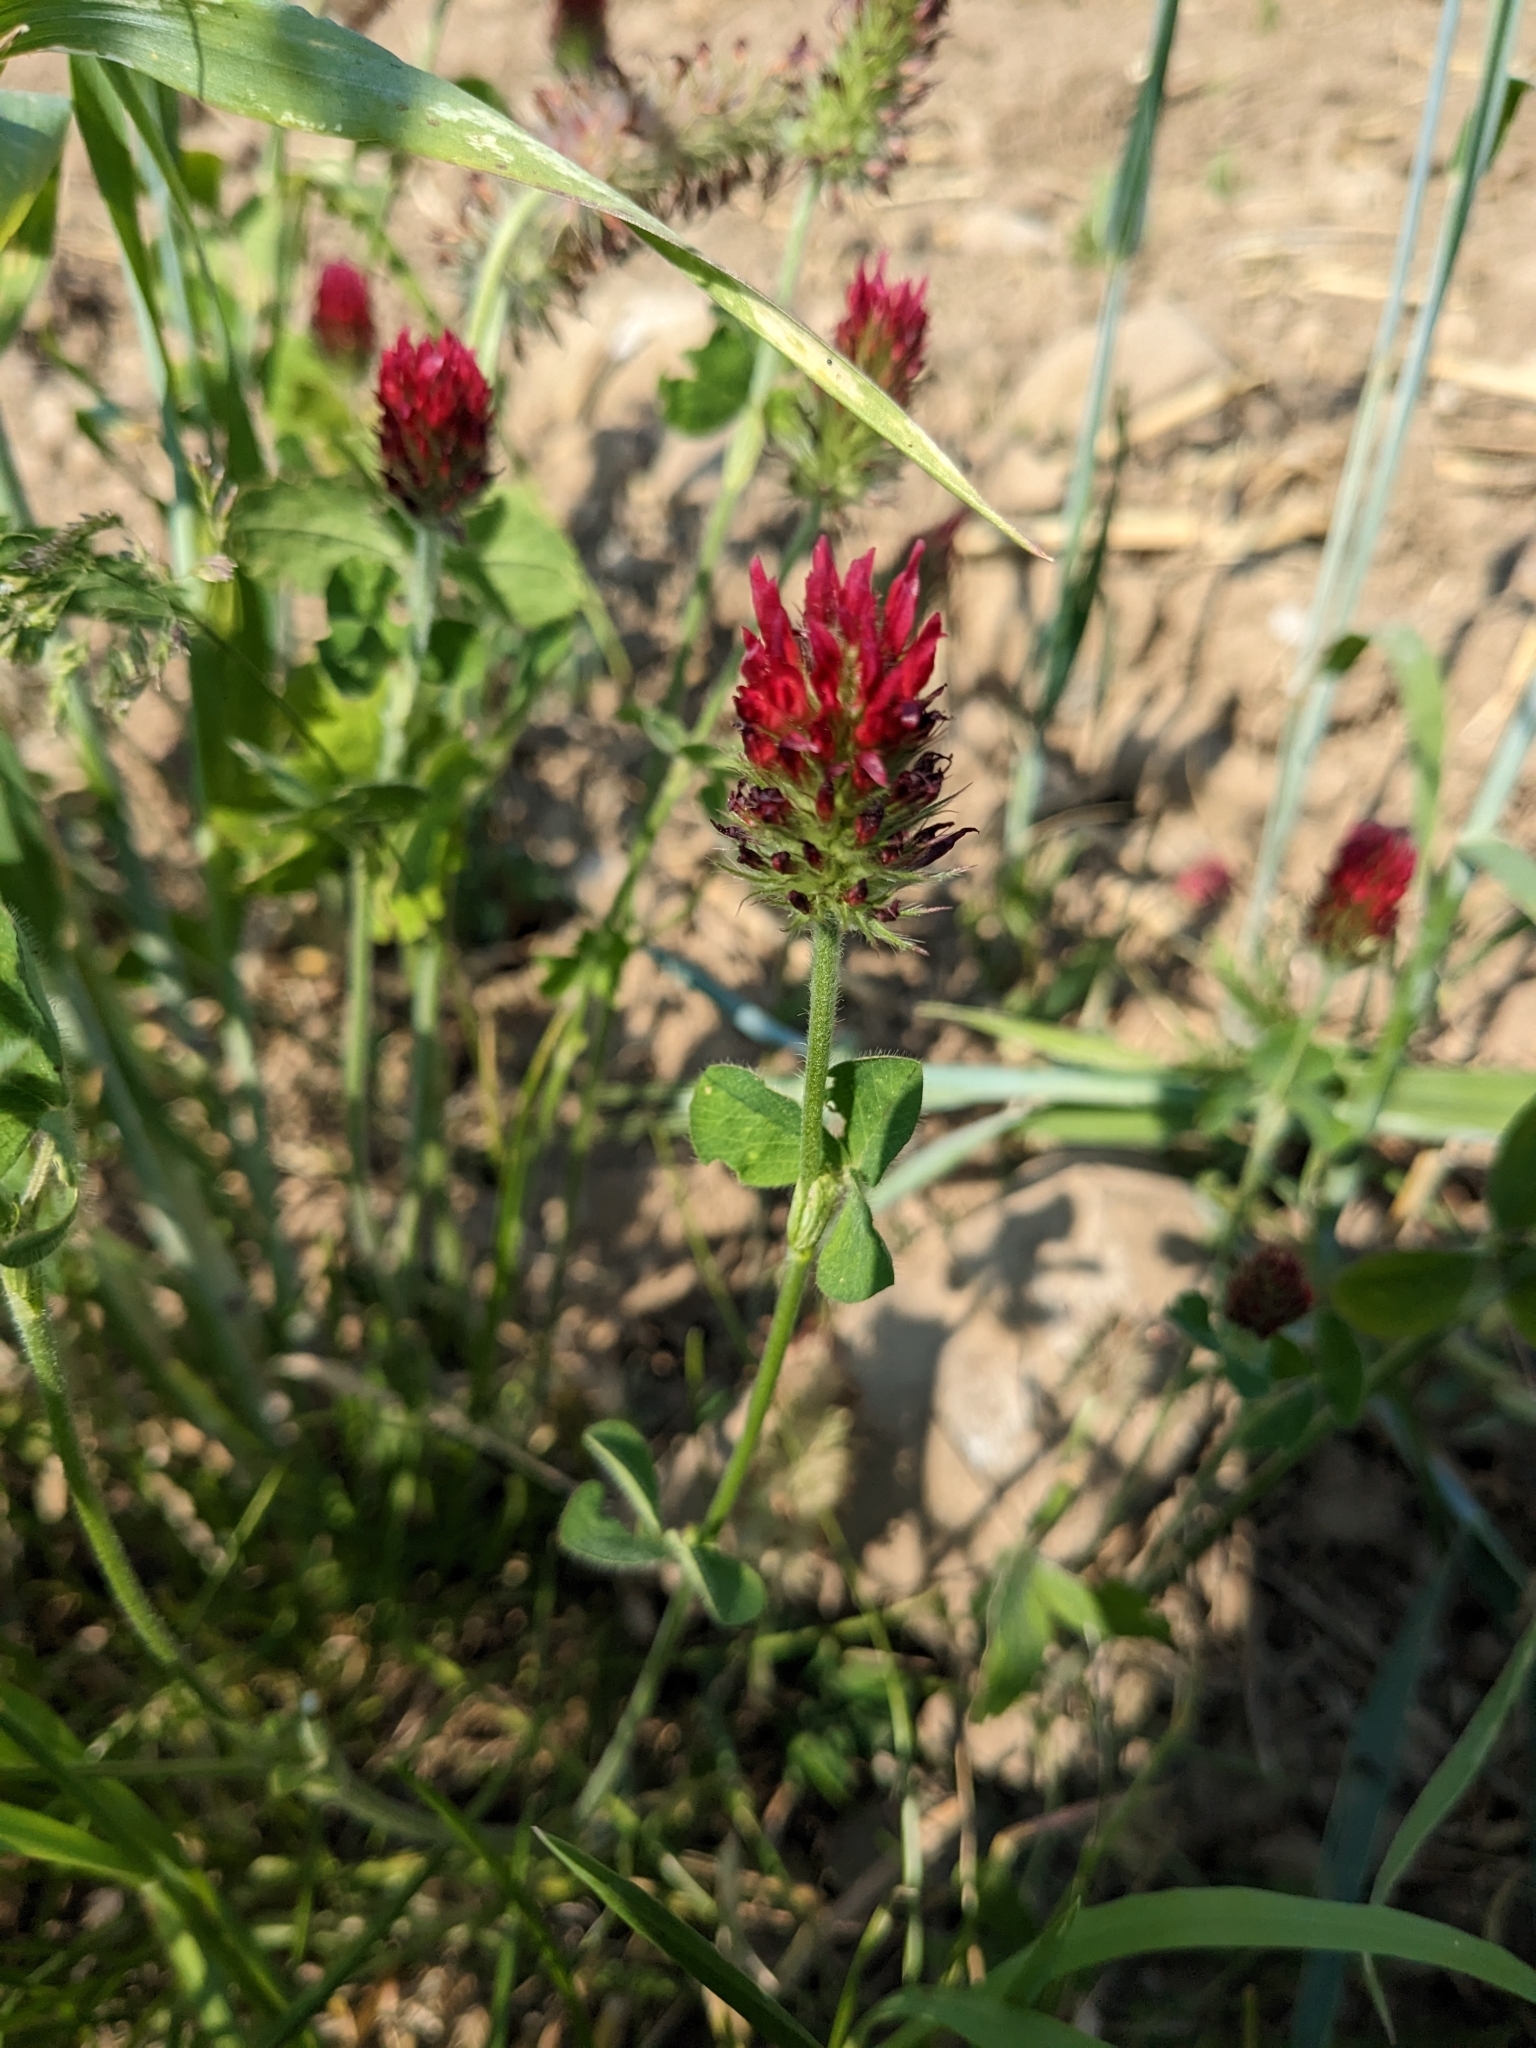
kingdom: Plantae
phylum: Tracheophyta
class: Magnoliopsida
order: Fabales
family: Fabaceae
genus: Trifolium
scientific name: Trifolium incarnatum
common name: Crimson clover
